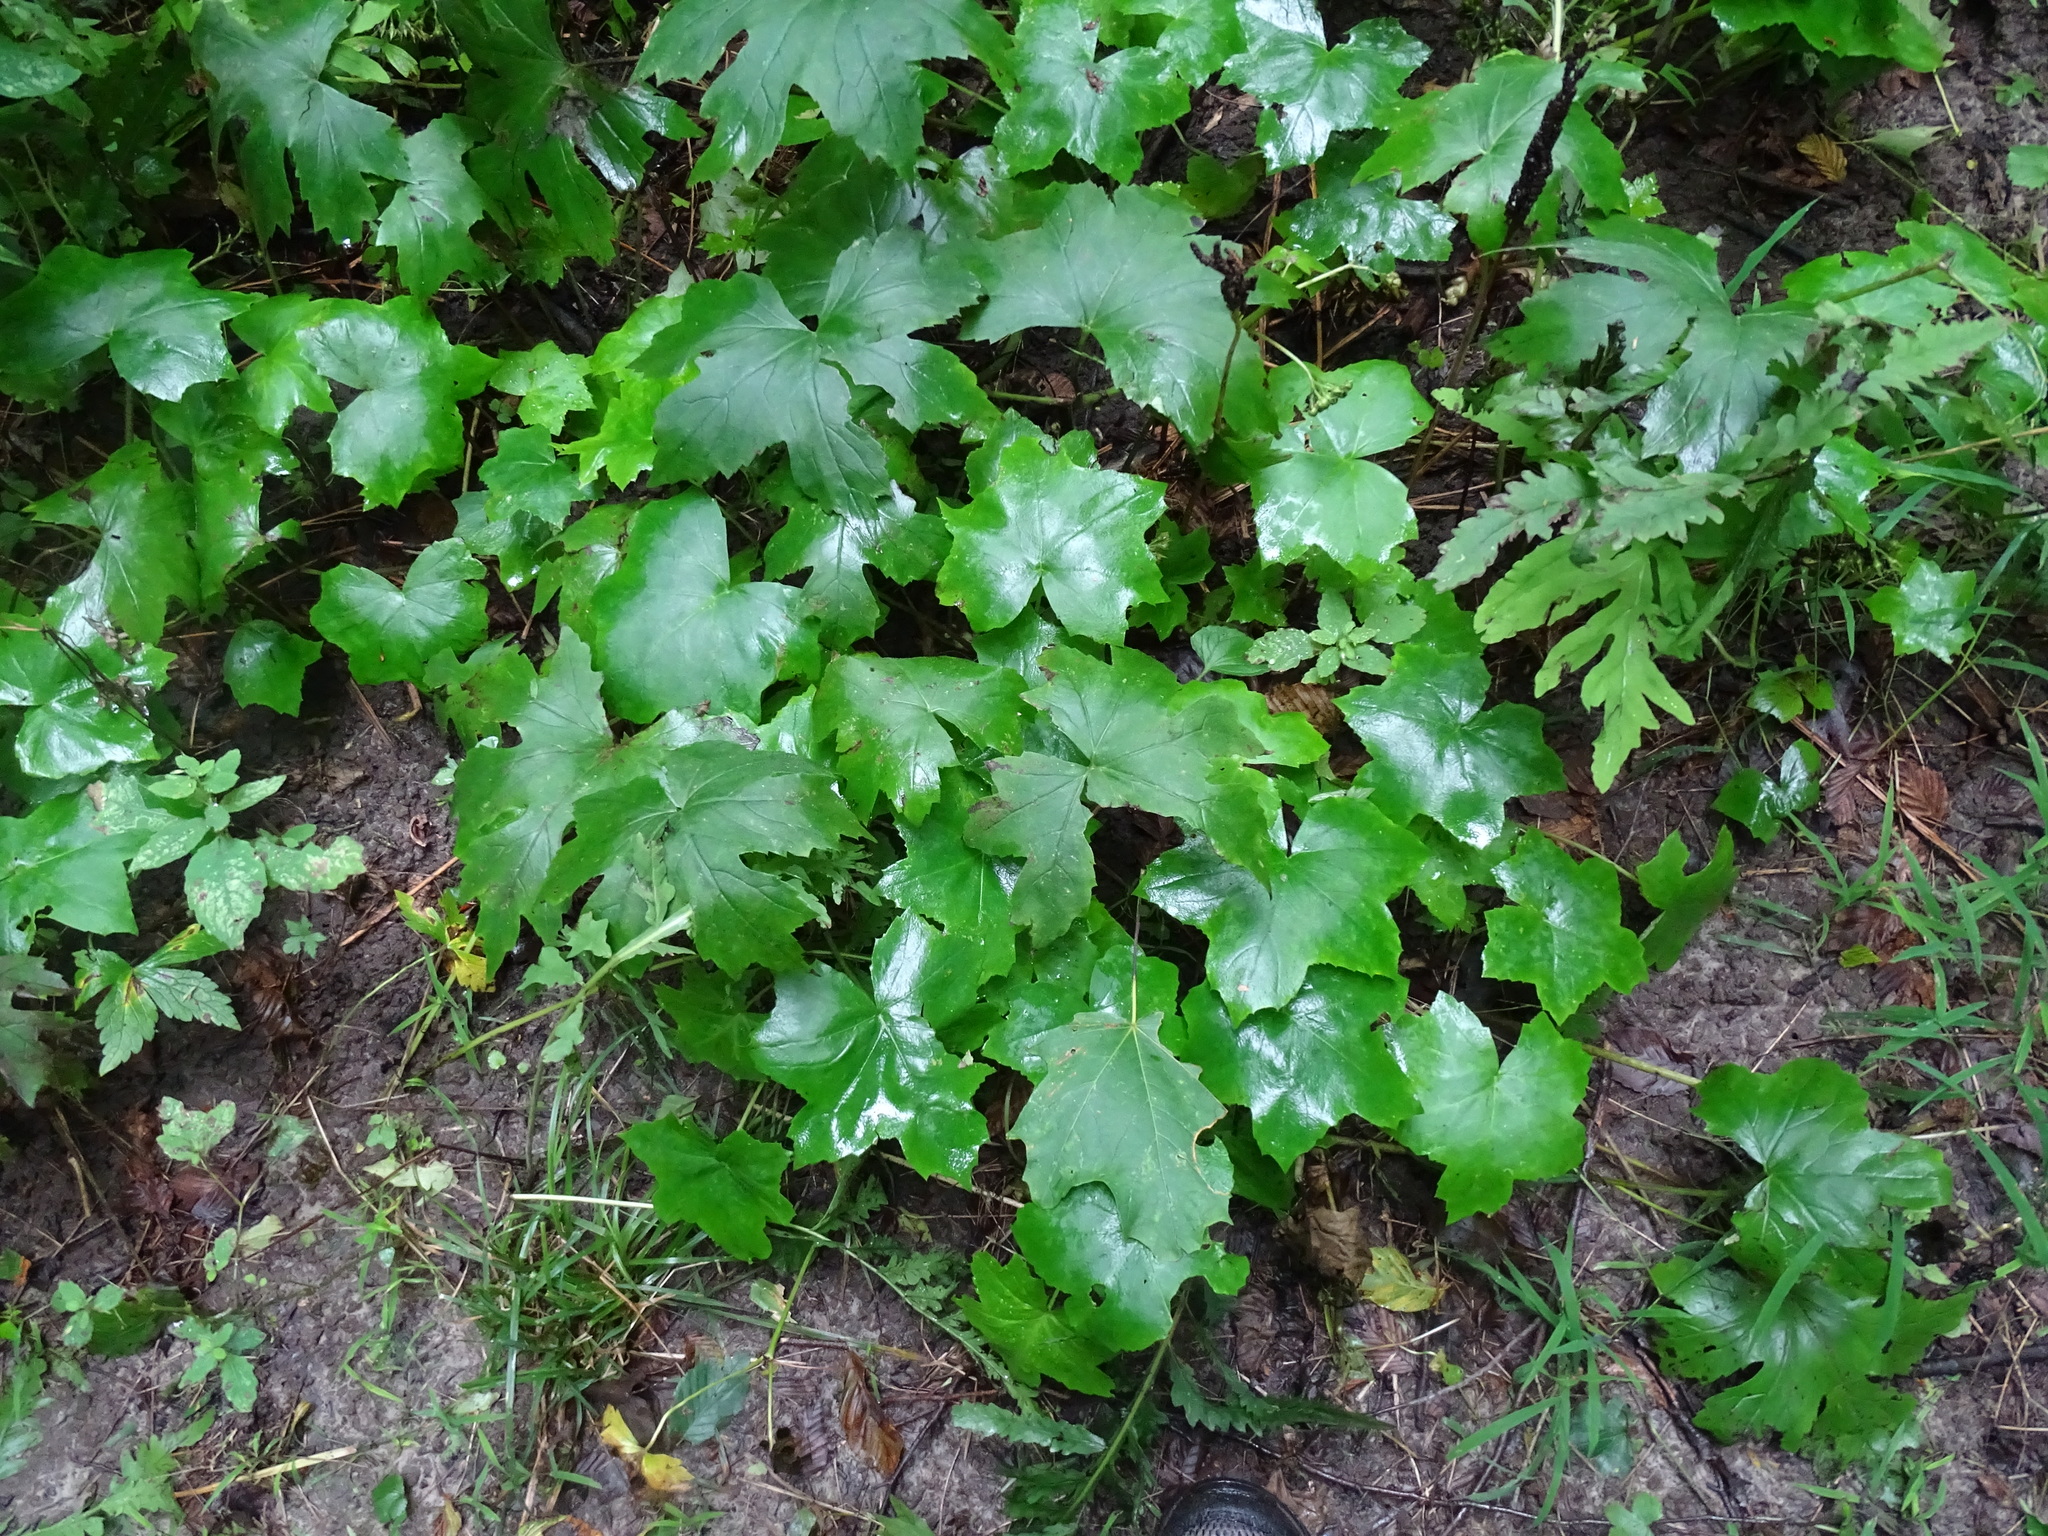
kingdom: Plantae
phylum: Tracheophyta
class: Magnoliopsida
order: Boraginales
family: Hydrophyllaceae
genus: Hydrophyllum
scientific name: Hydrophyllum canadense
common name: Canada waterleaf
